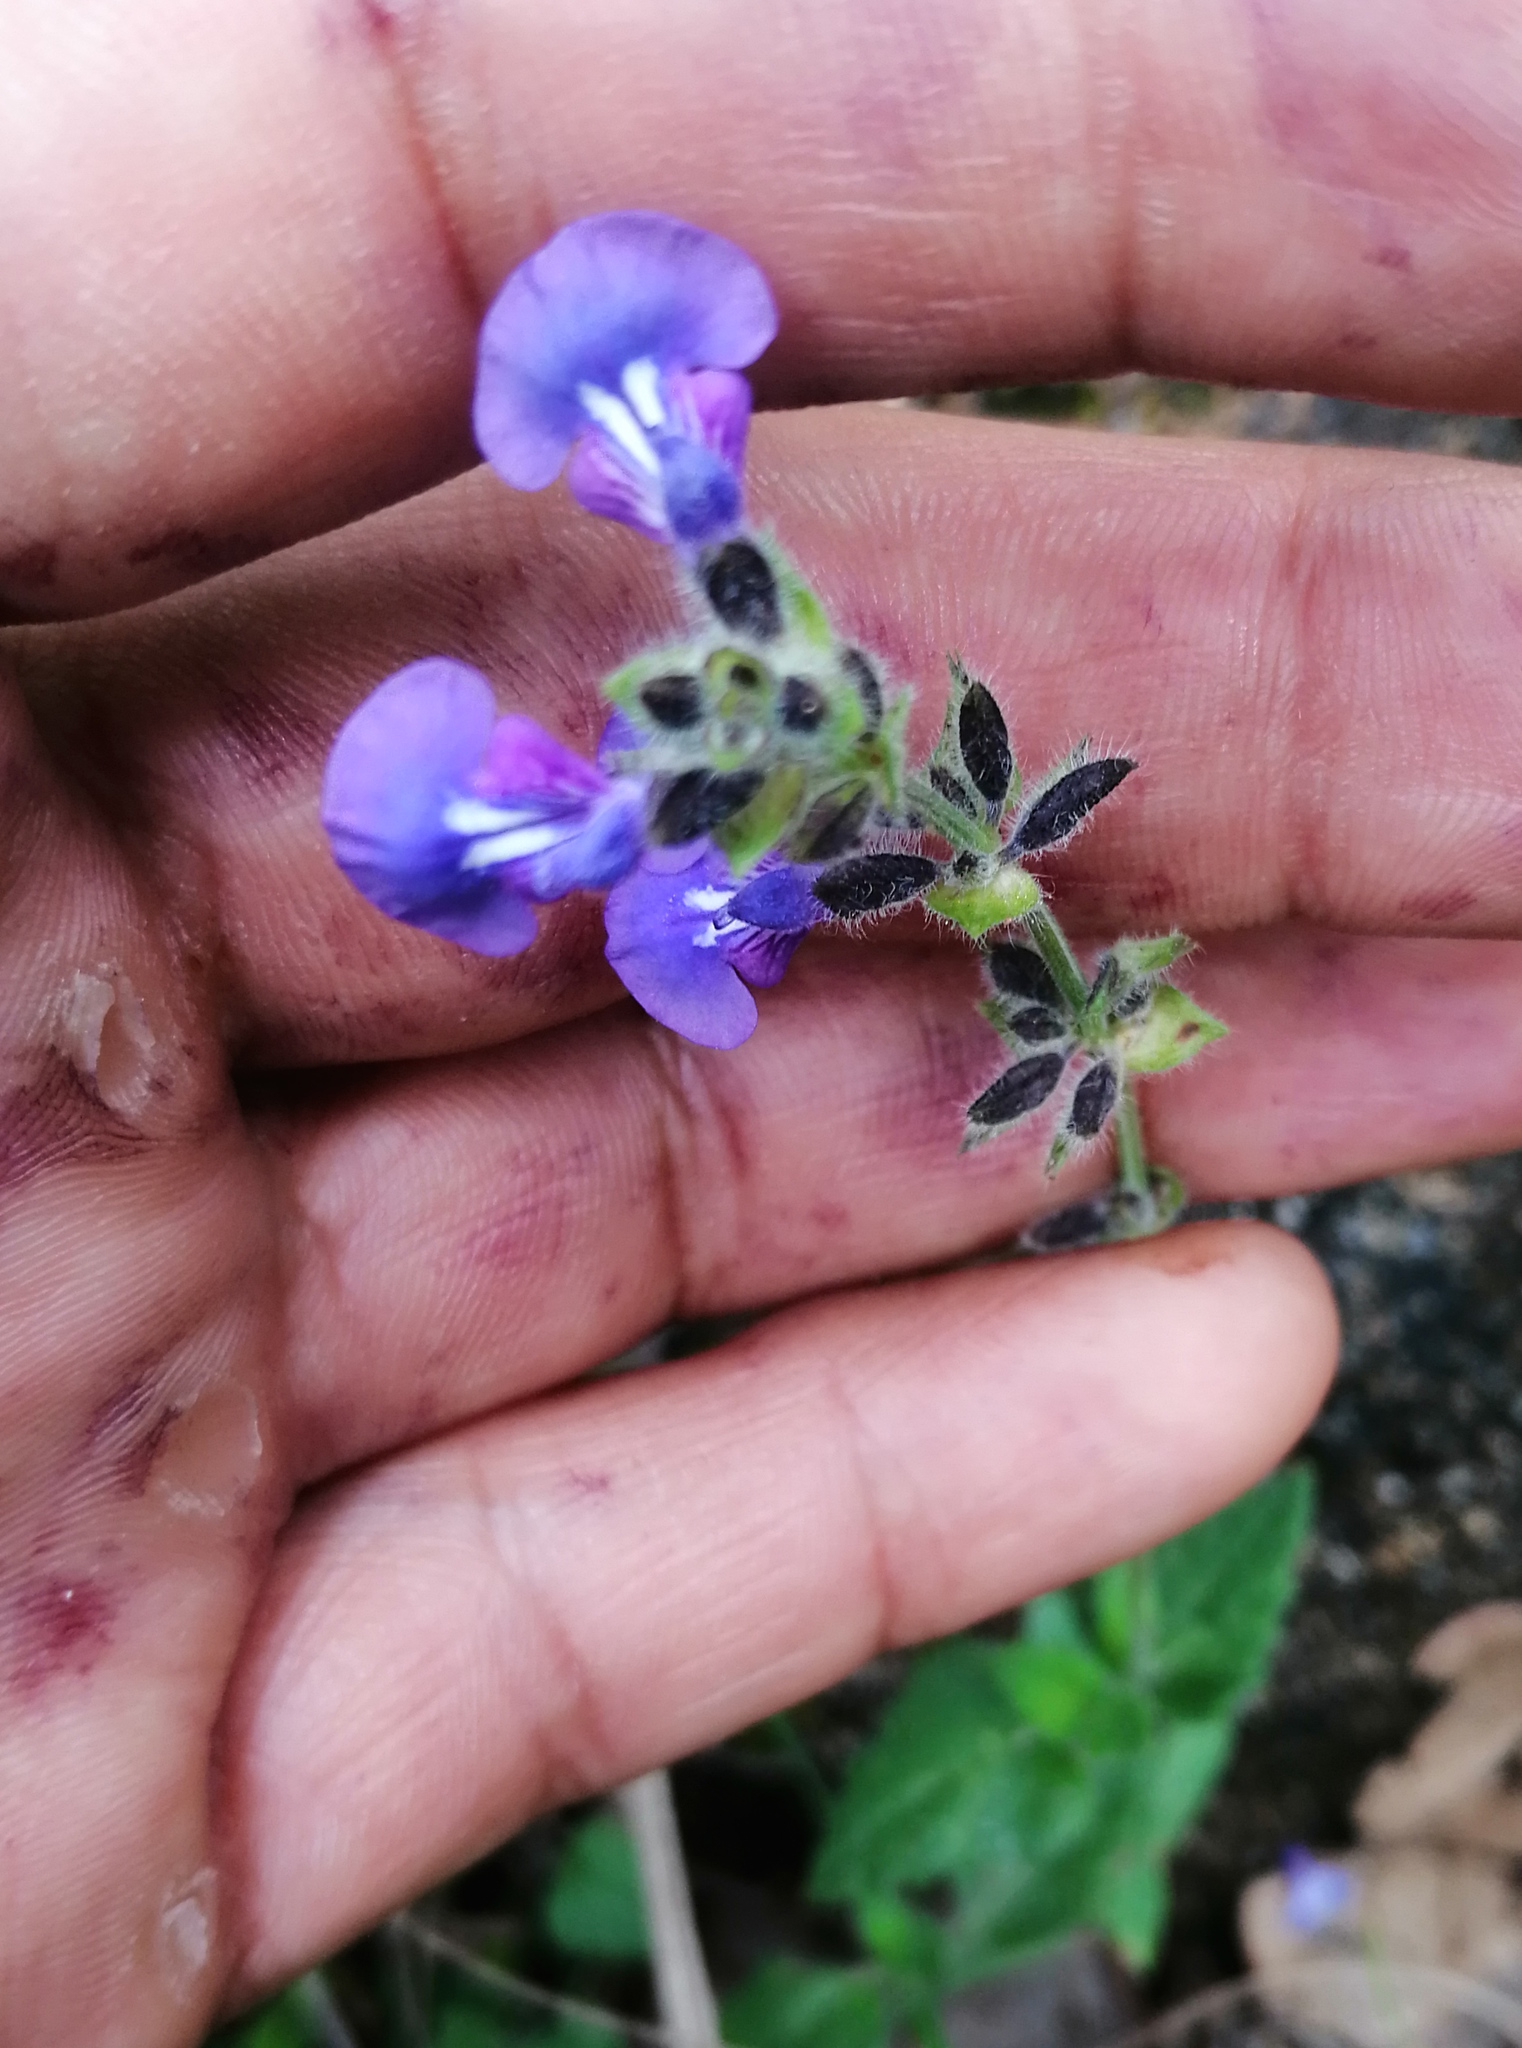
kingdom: Plantae
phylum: Tracheophyta
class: Magnoliopsida
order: Lamiales
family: Lamiaceae
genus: Salvia
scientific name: Salvia pusilla
